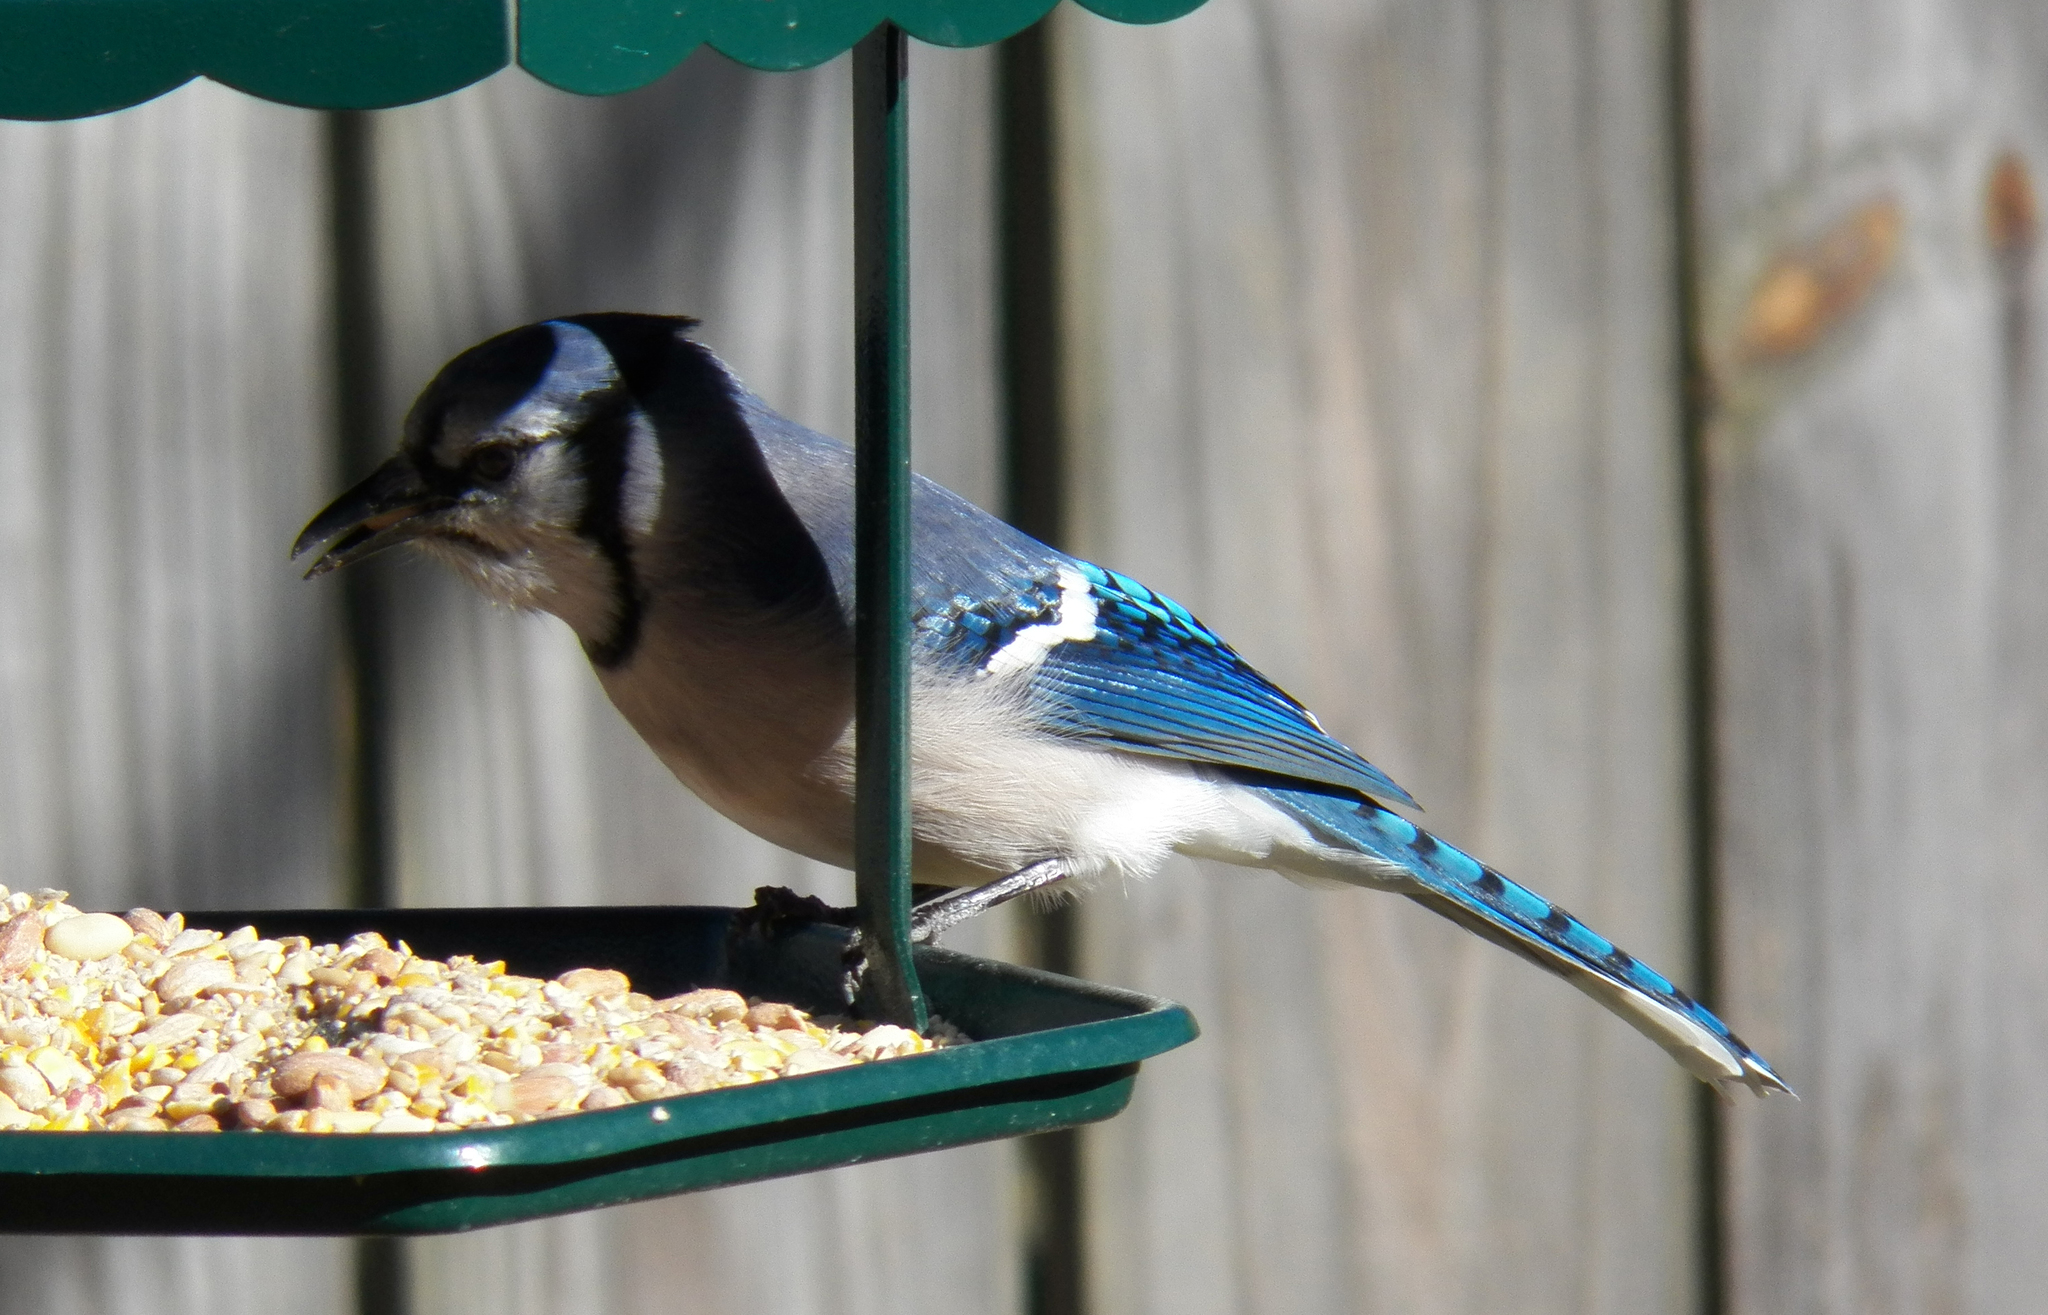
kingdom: Animalia
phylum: Chordata
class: Aves
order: Passeriformes
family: Corvidae
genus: Cyanocitta
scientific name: Cyanocitta cristata
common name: Blue jay
